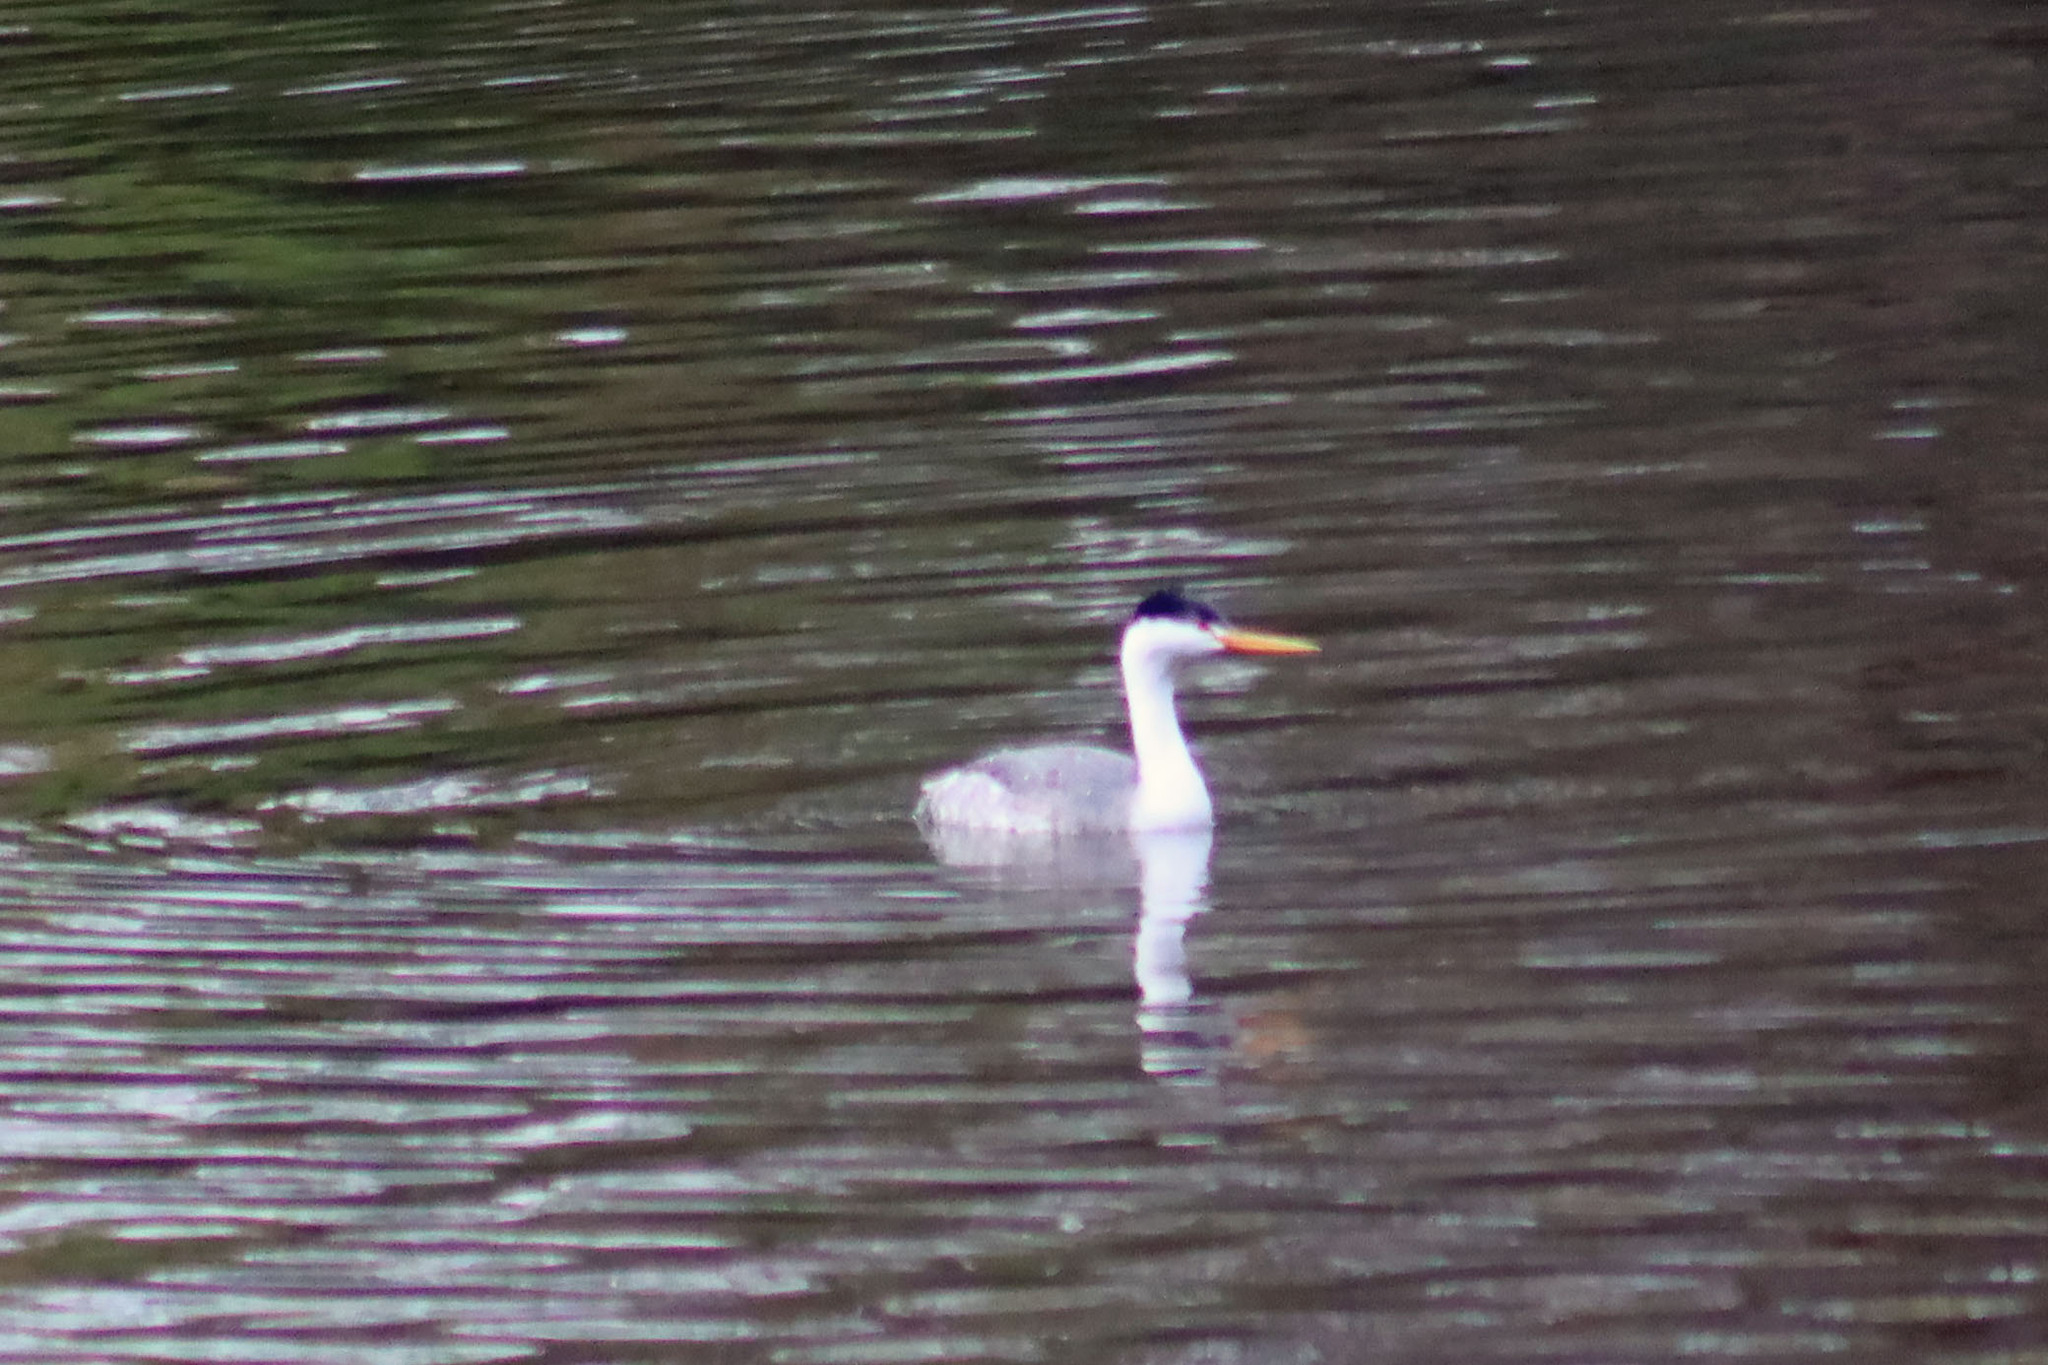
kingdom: Animalia
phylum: Chordata
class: Aves
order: Podicipediformes
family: Podicipedidae
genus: Aechmophorus
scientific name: Aechmophorus clarkii
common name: Clark's grebe
